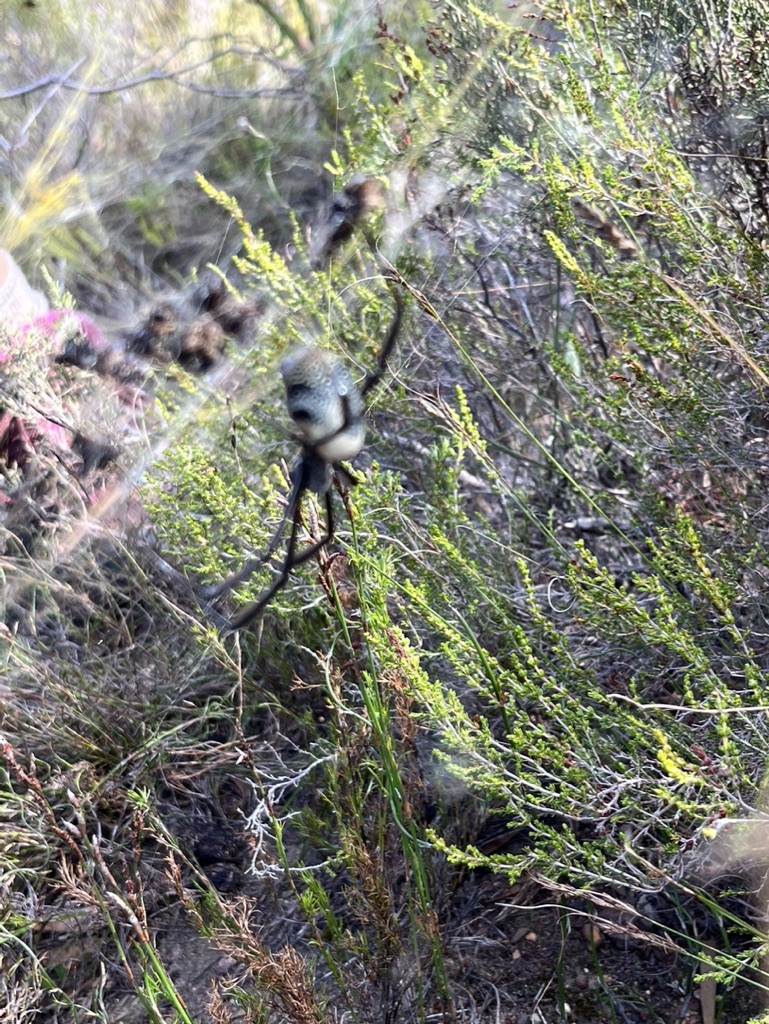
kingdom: Animalia
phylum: Arthropoda
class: Arachnida
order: Araneae
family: Araneidae
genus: Trichonephila
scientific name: Trichonephila fenestrata
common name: Hairy golden orb weaver
